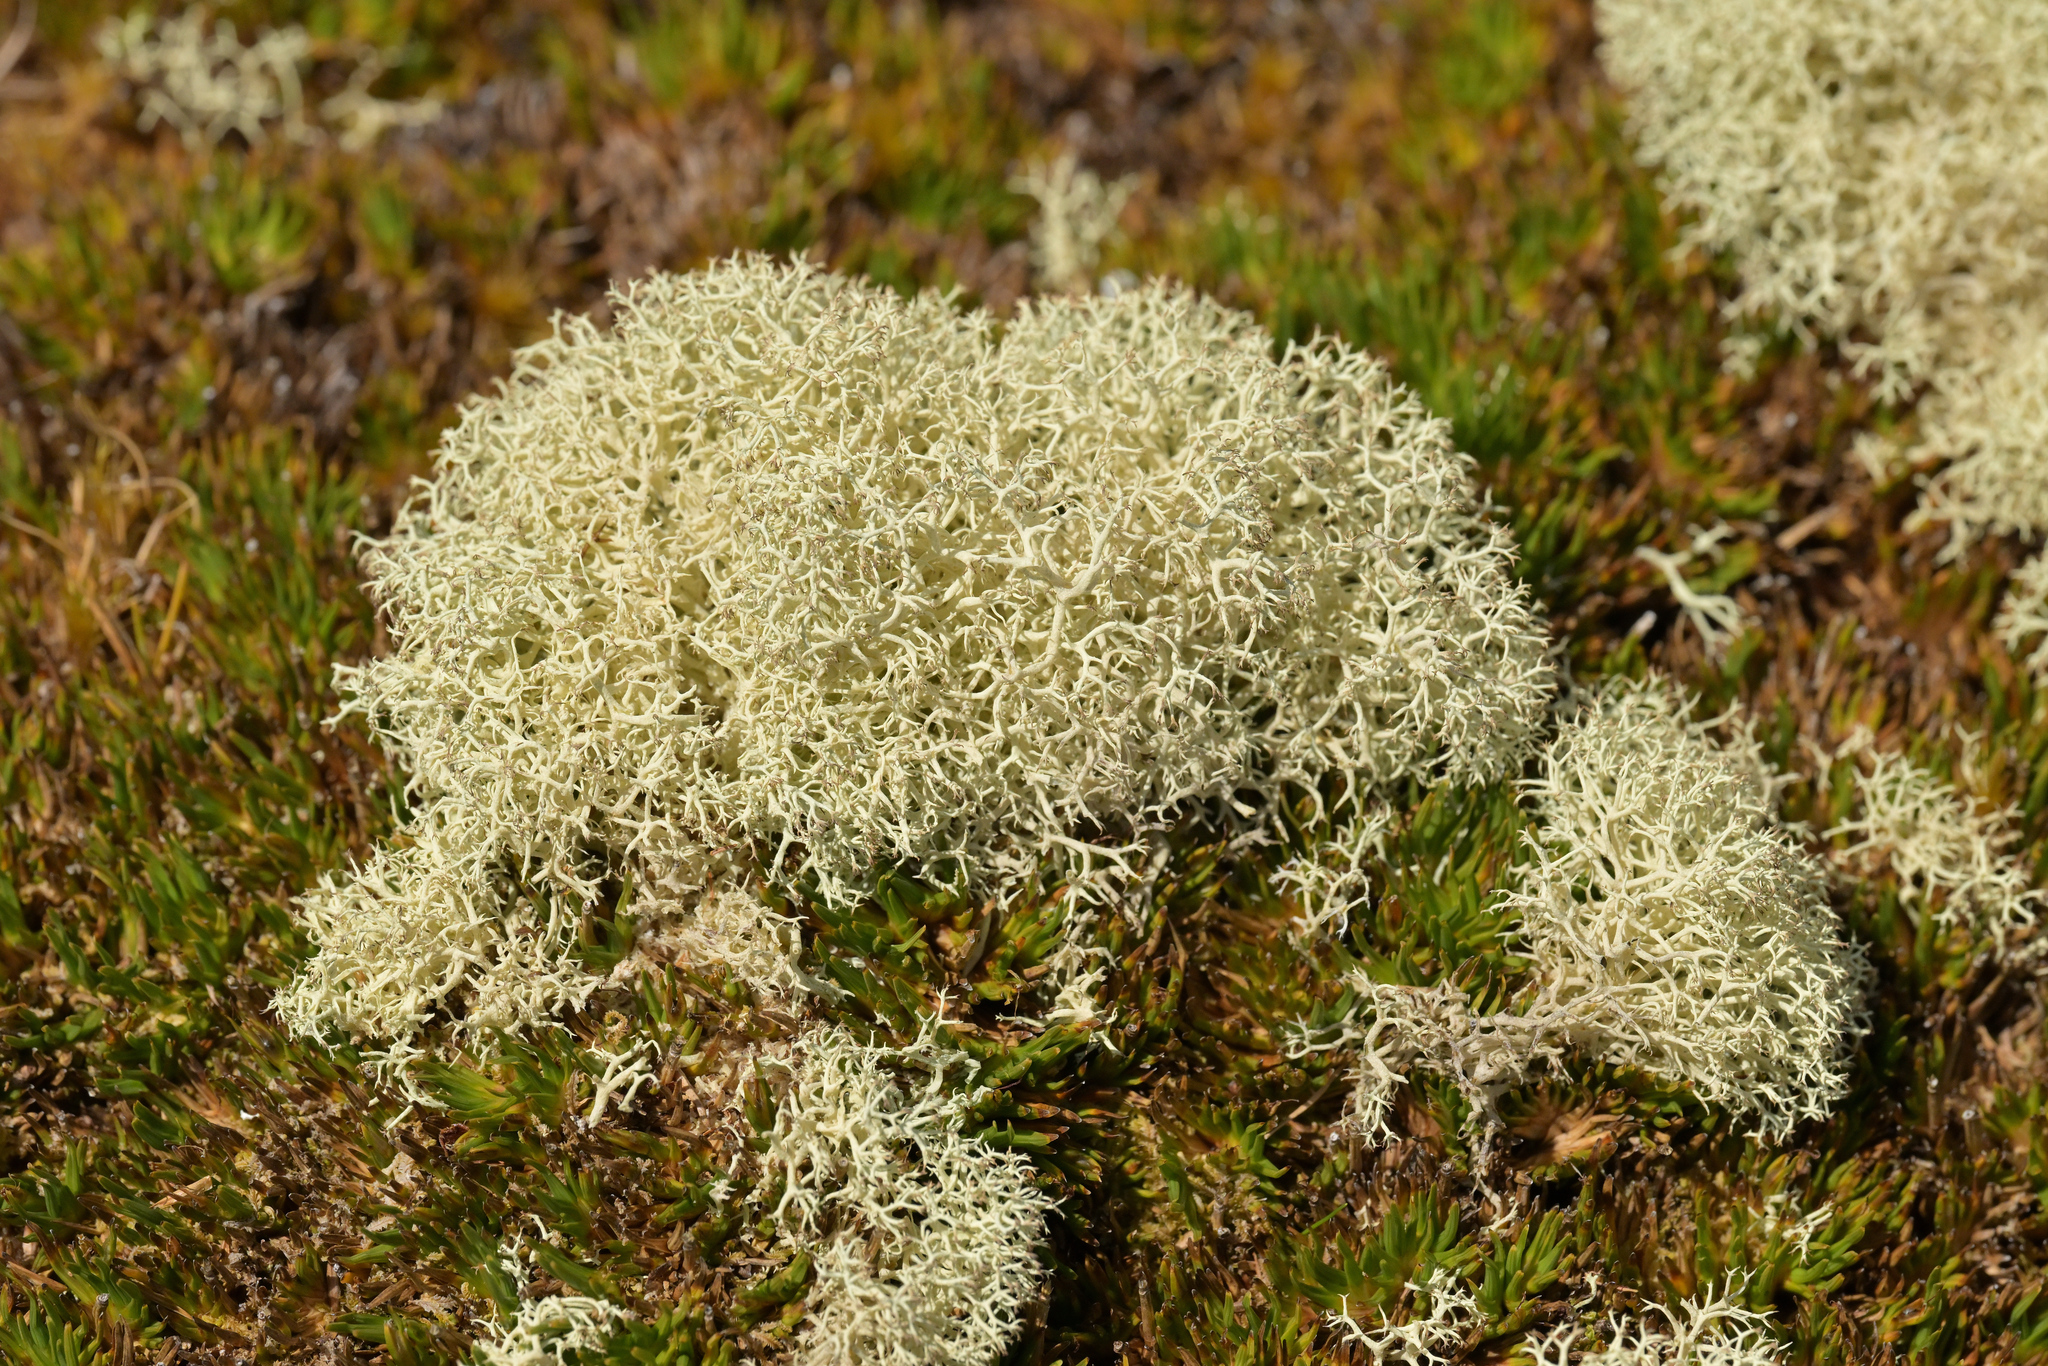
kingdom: Fungi
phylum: Ascomycota
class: Lecanoromycetes
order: Lecanorales
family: Cladoniaceae
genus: Cladonia
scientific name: Cladonia confusa
